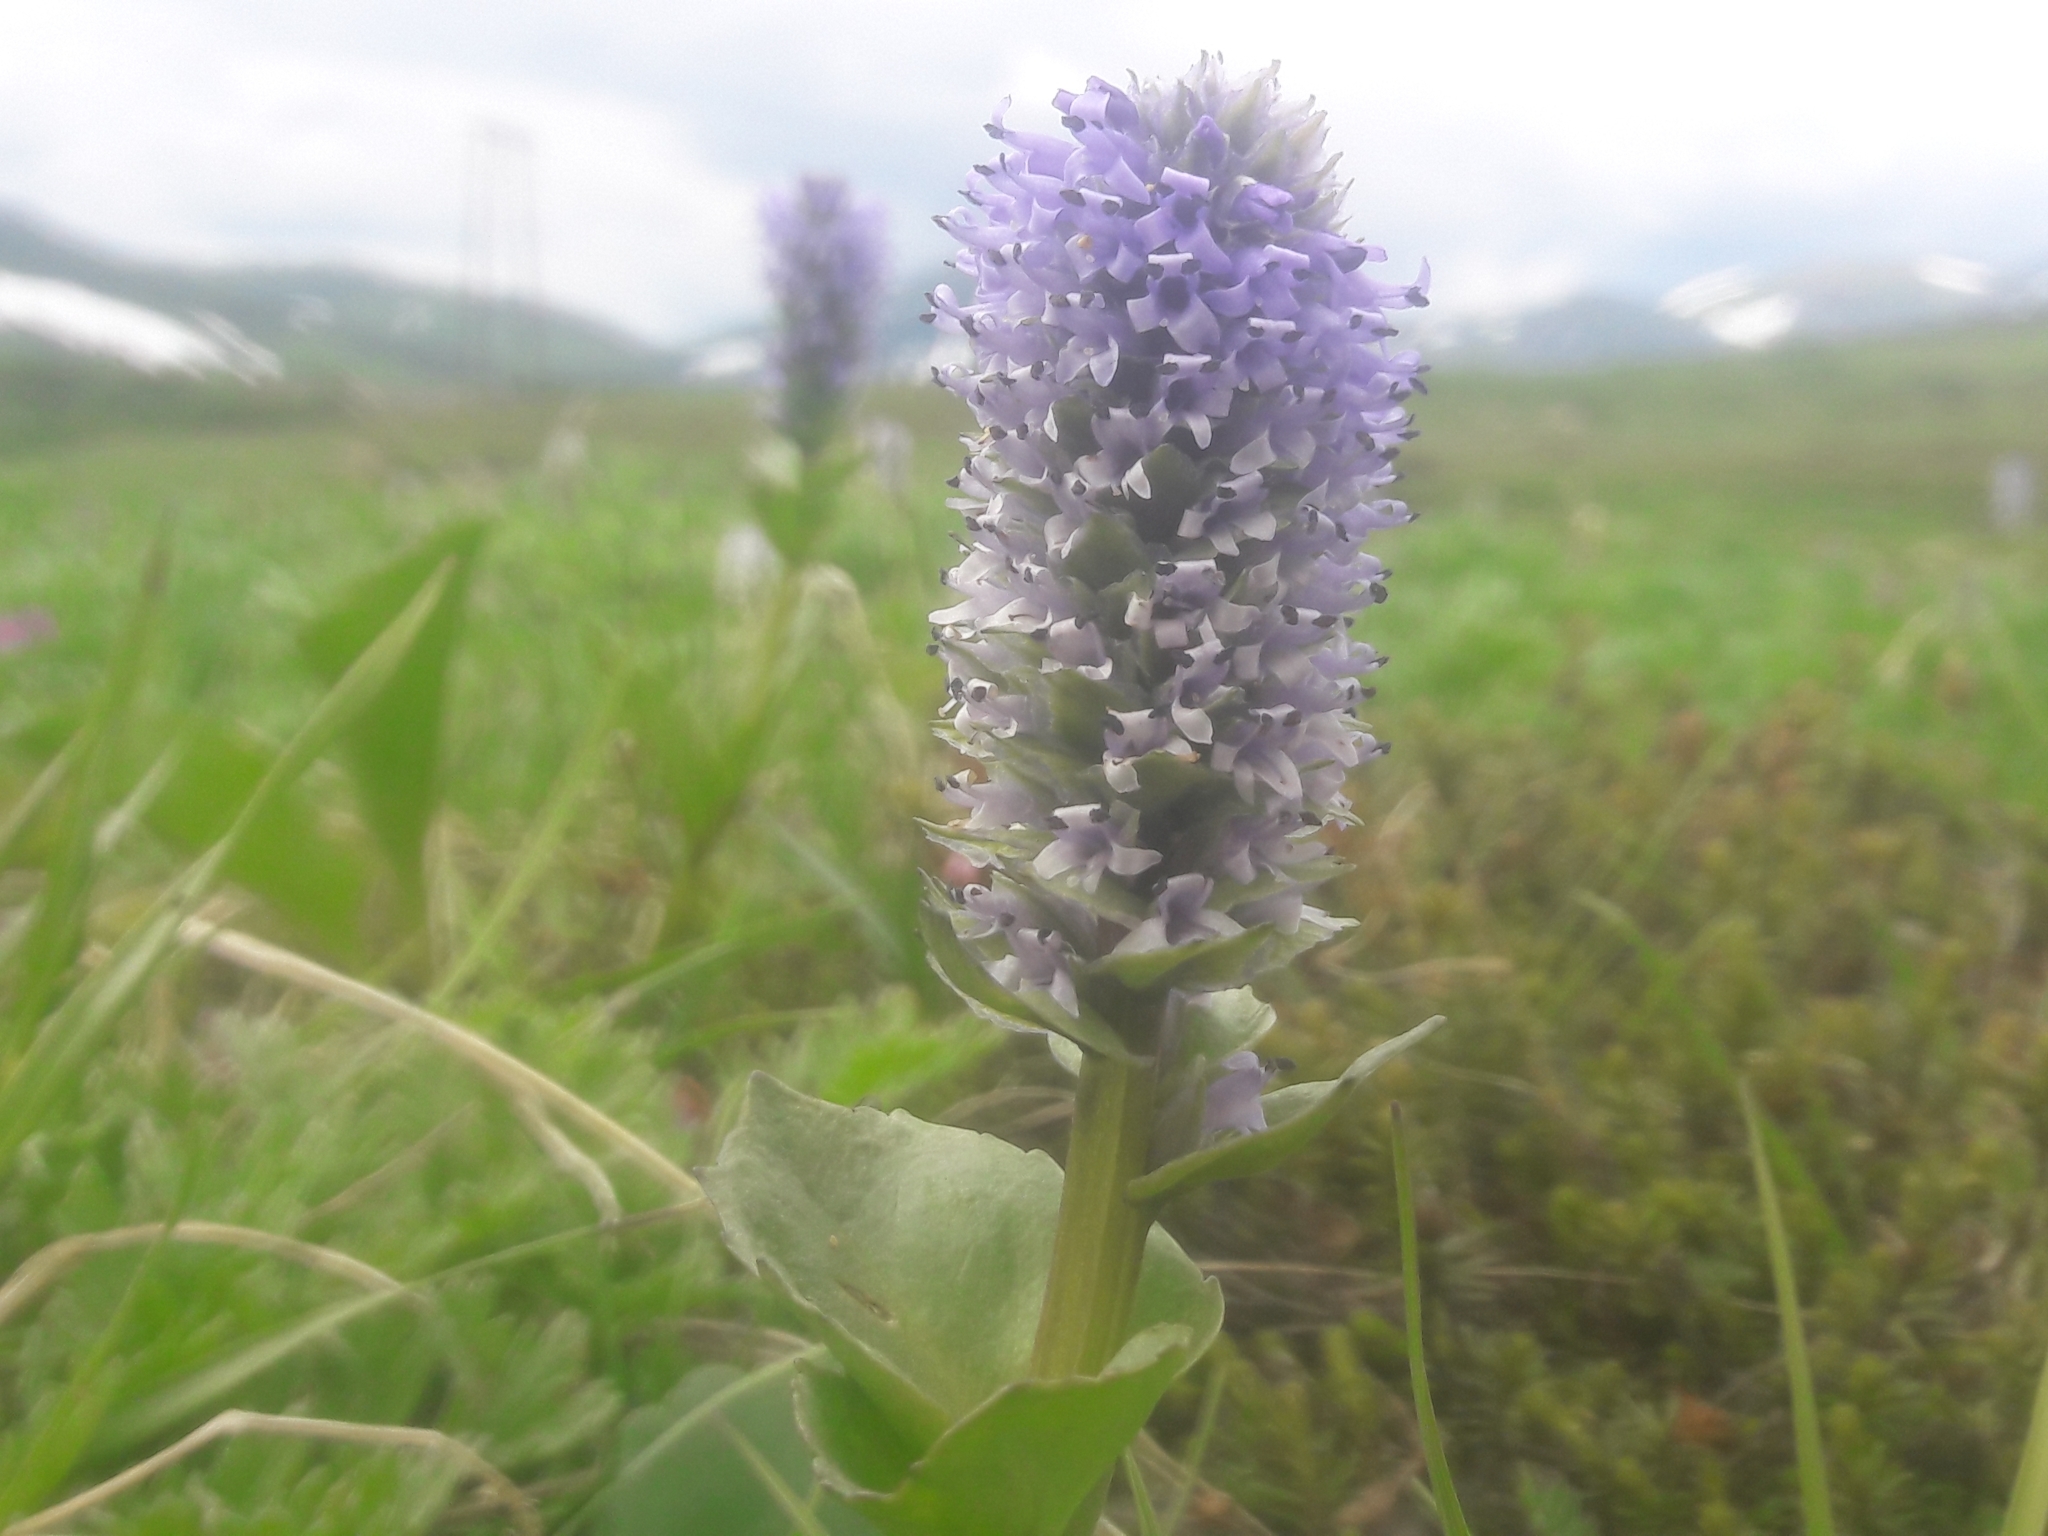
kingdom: Plantae
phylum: Tracheophyta
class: Magnoliopsida
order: Lamiales
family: Plantaginaceae
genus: Lagotis
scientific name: Lagotis glauca
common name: Glaucous weaselsnout
